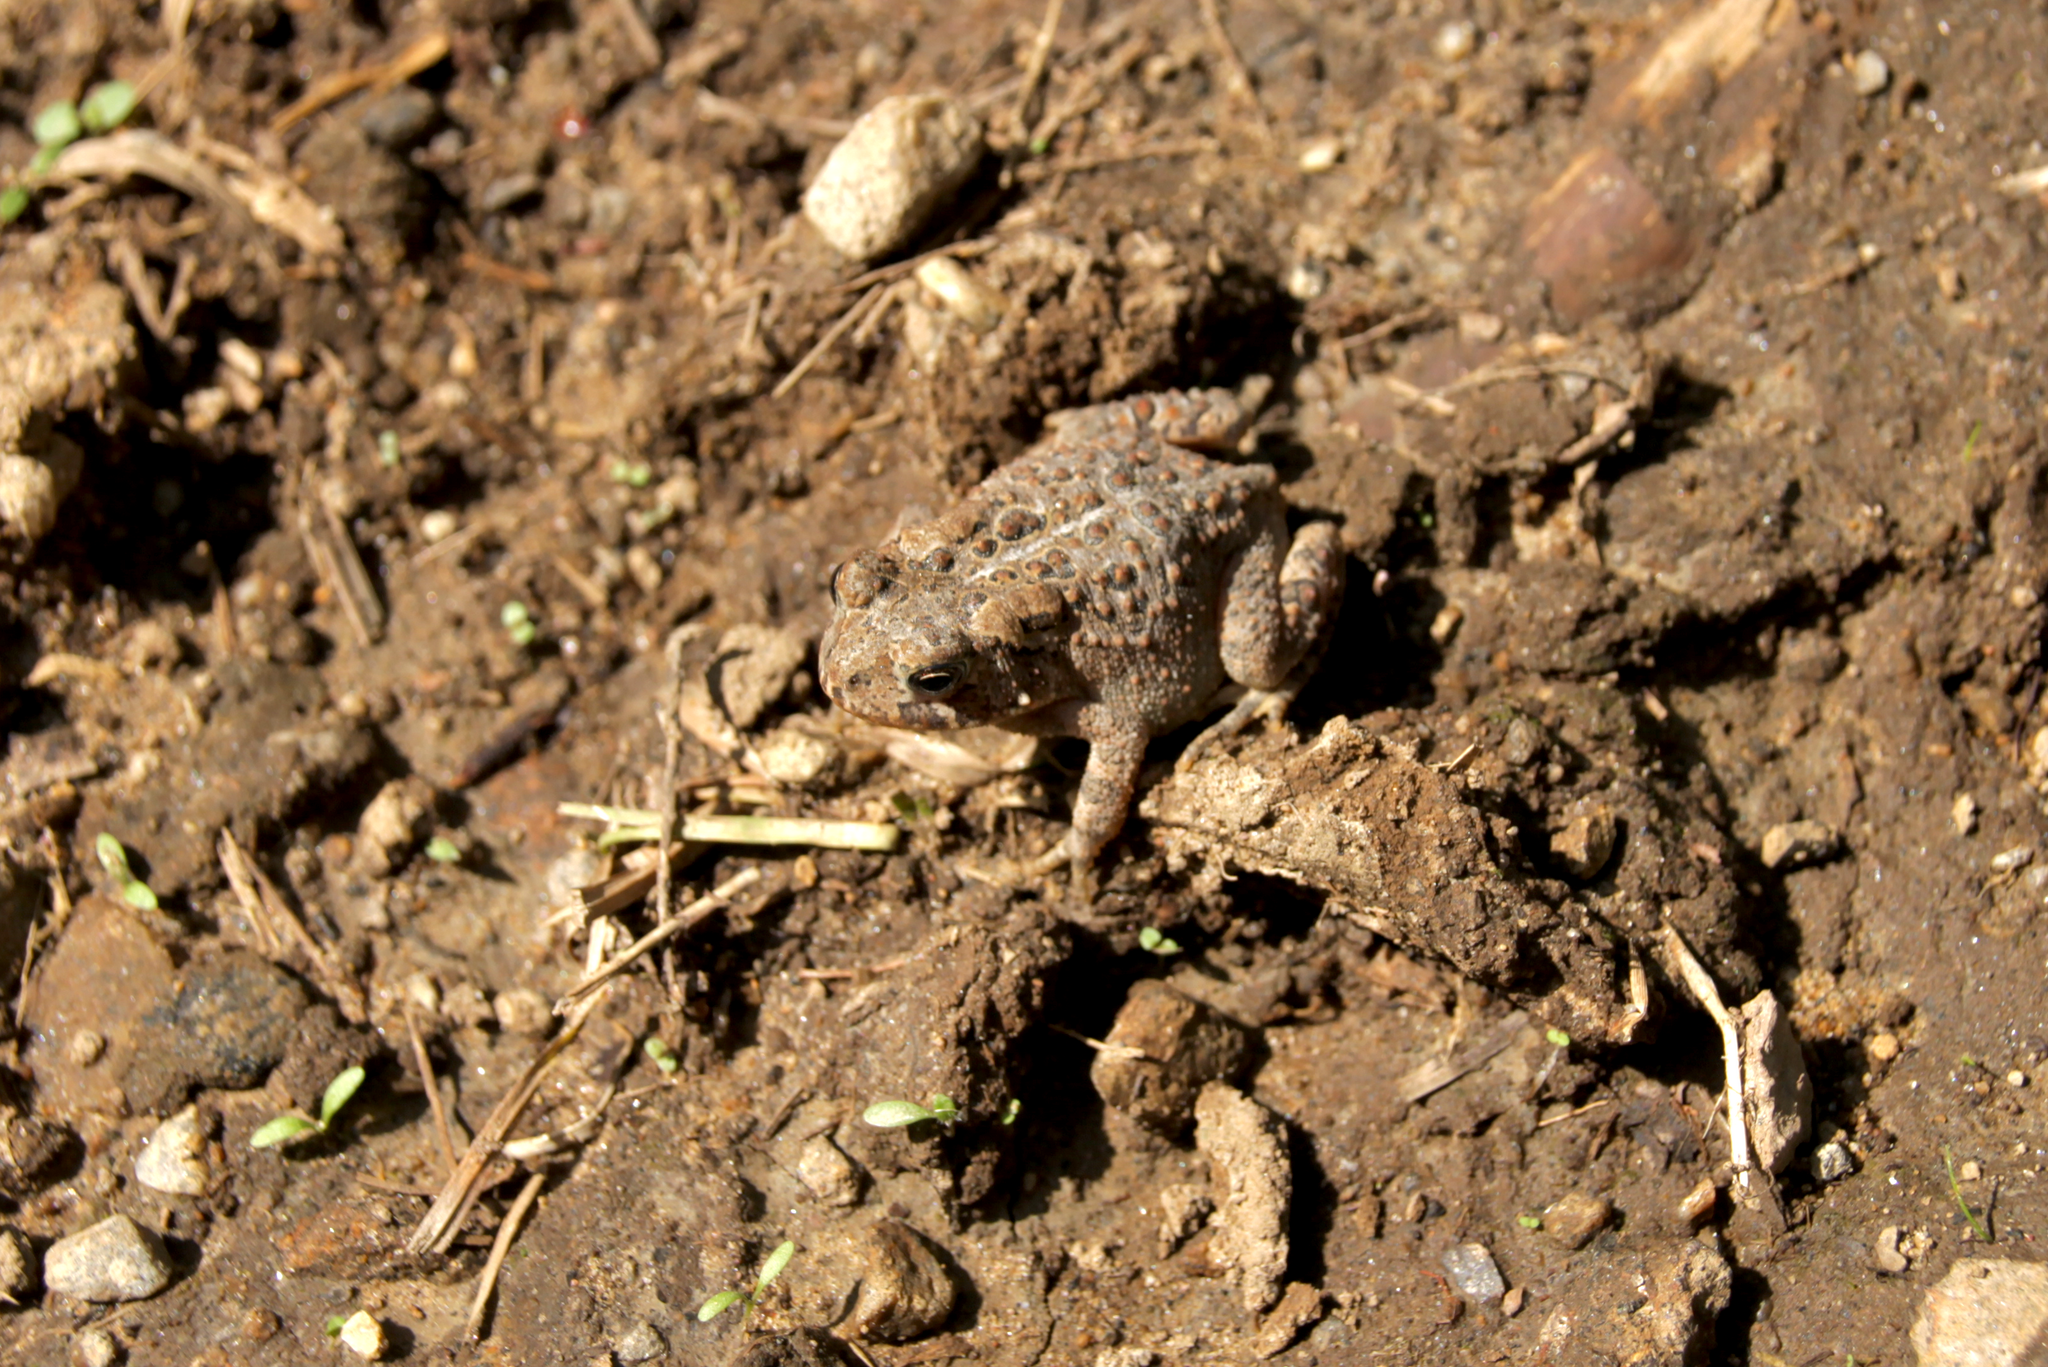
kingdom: Animalia
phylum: Chordata
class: Amphibia
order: Anura
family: Bufonidae
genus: Anaxyrus
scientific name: Anaxyrus americanus
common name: American toad
